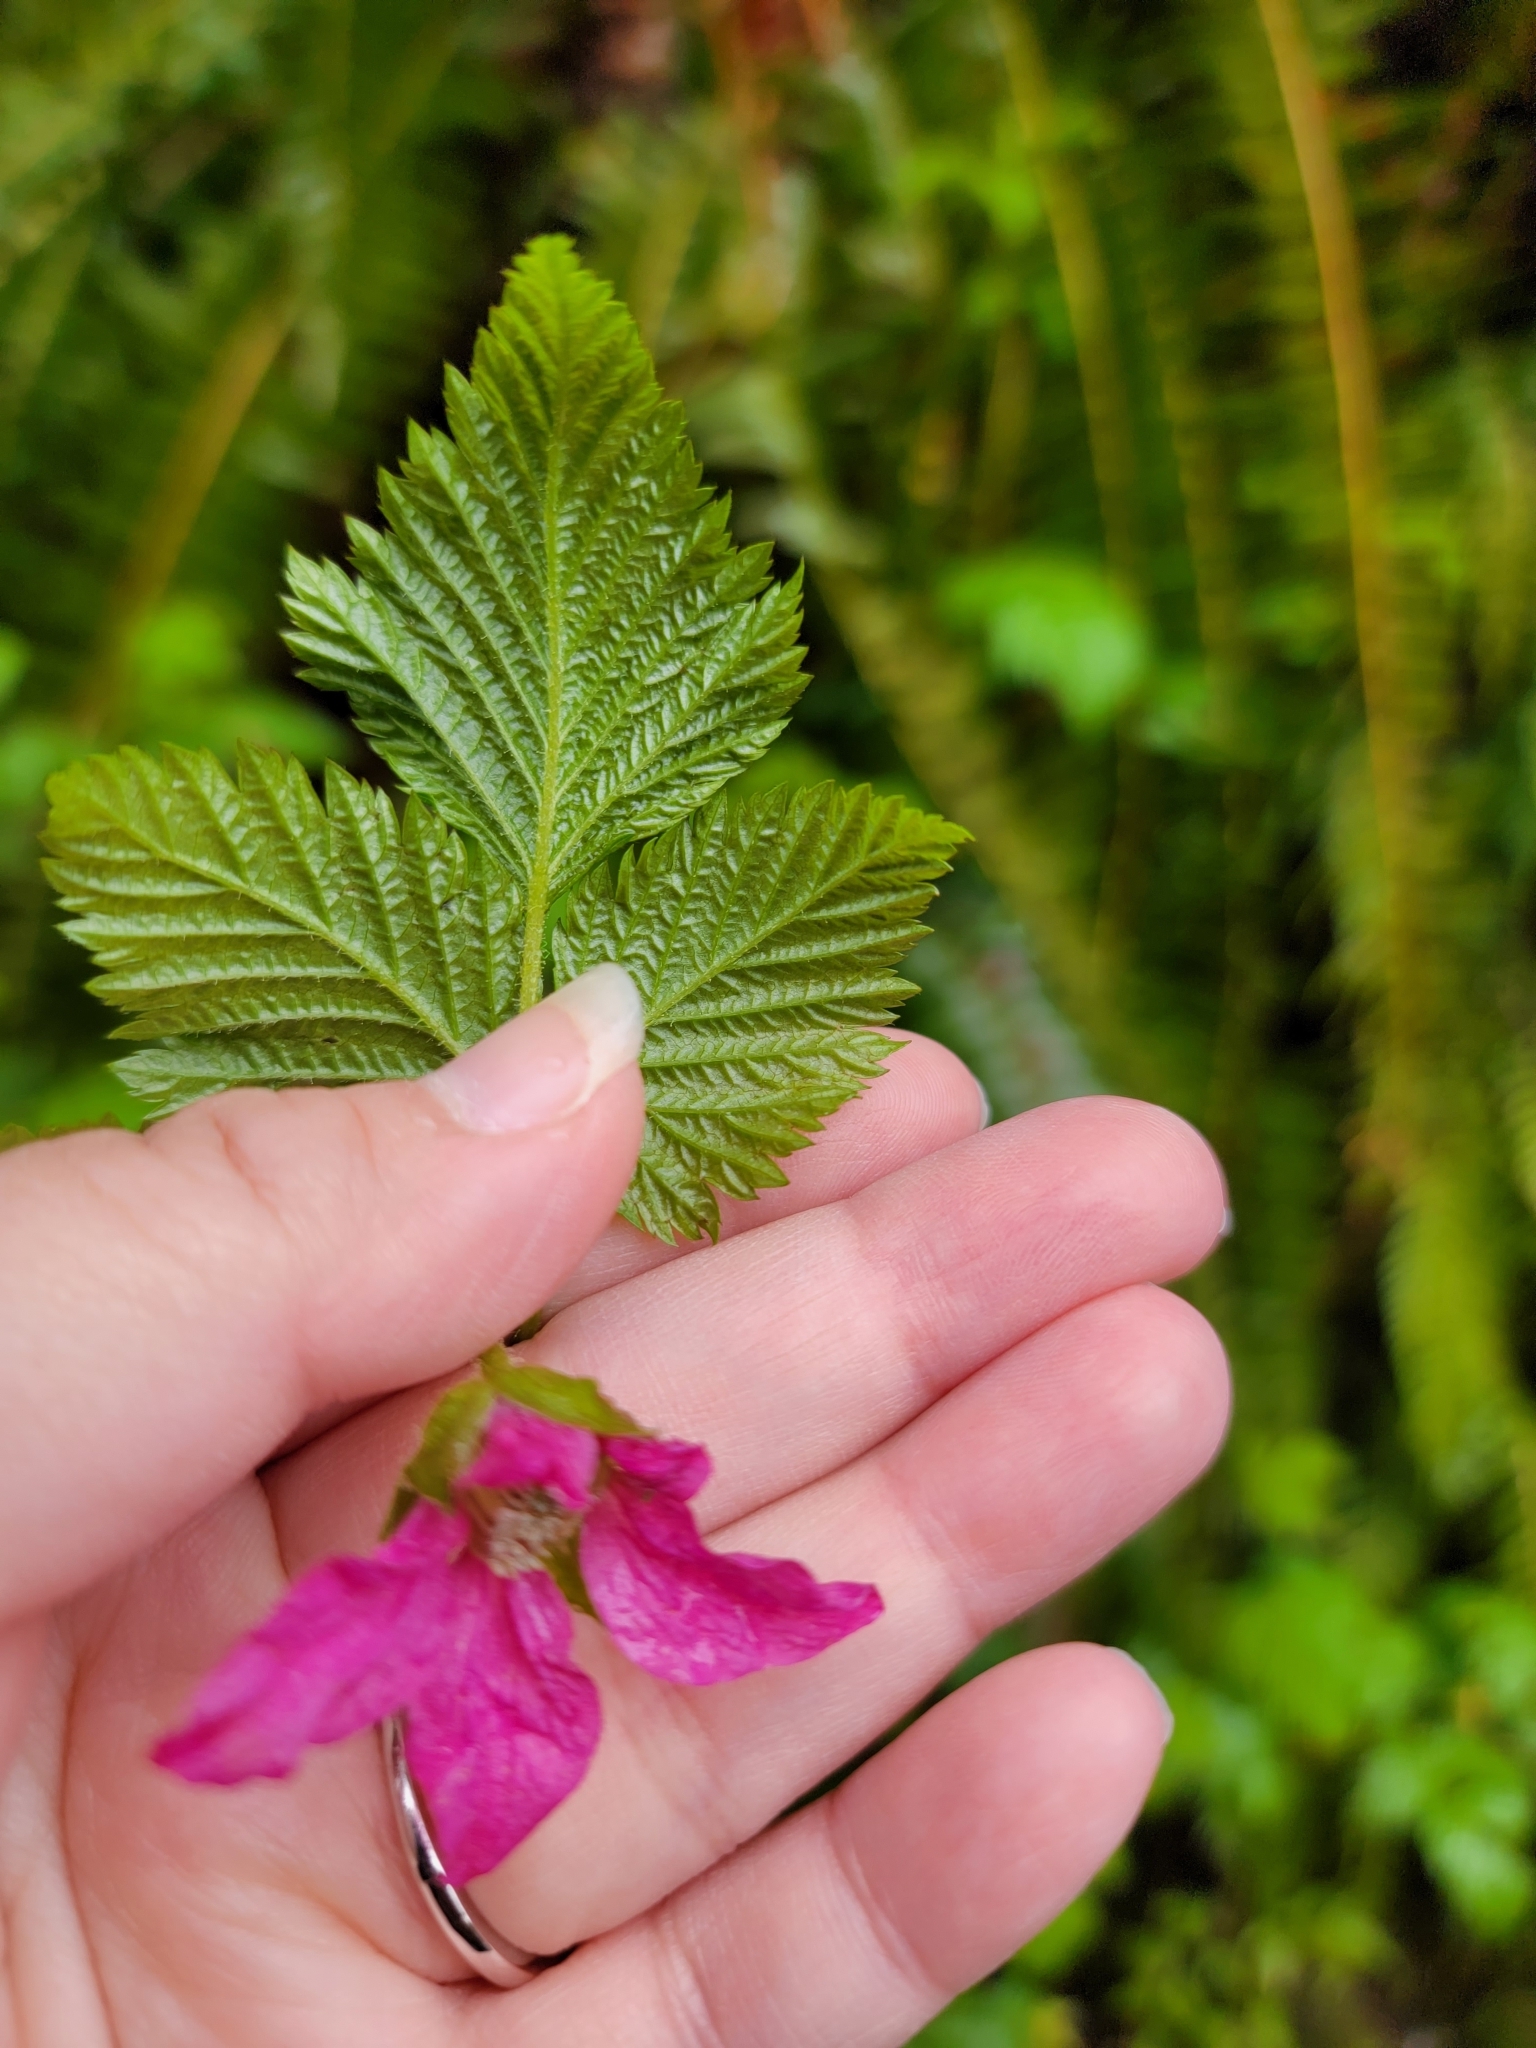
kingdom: Plantae
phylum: Tracheophyta
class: Magnoliopsida
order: Rosales
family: Rosaceae
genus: Rubus
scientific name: Rubus spectabilis
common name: Salmonberry
